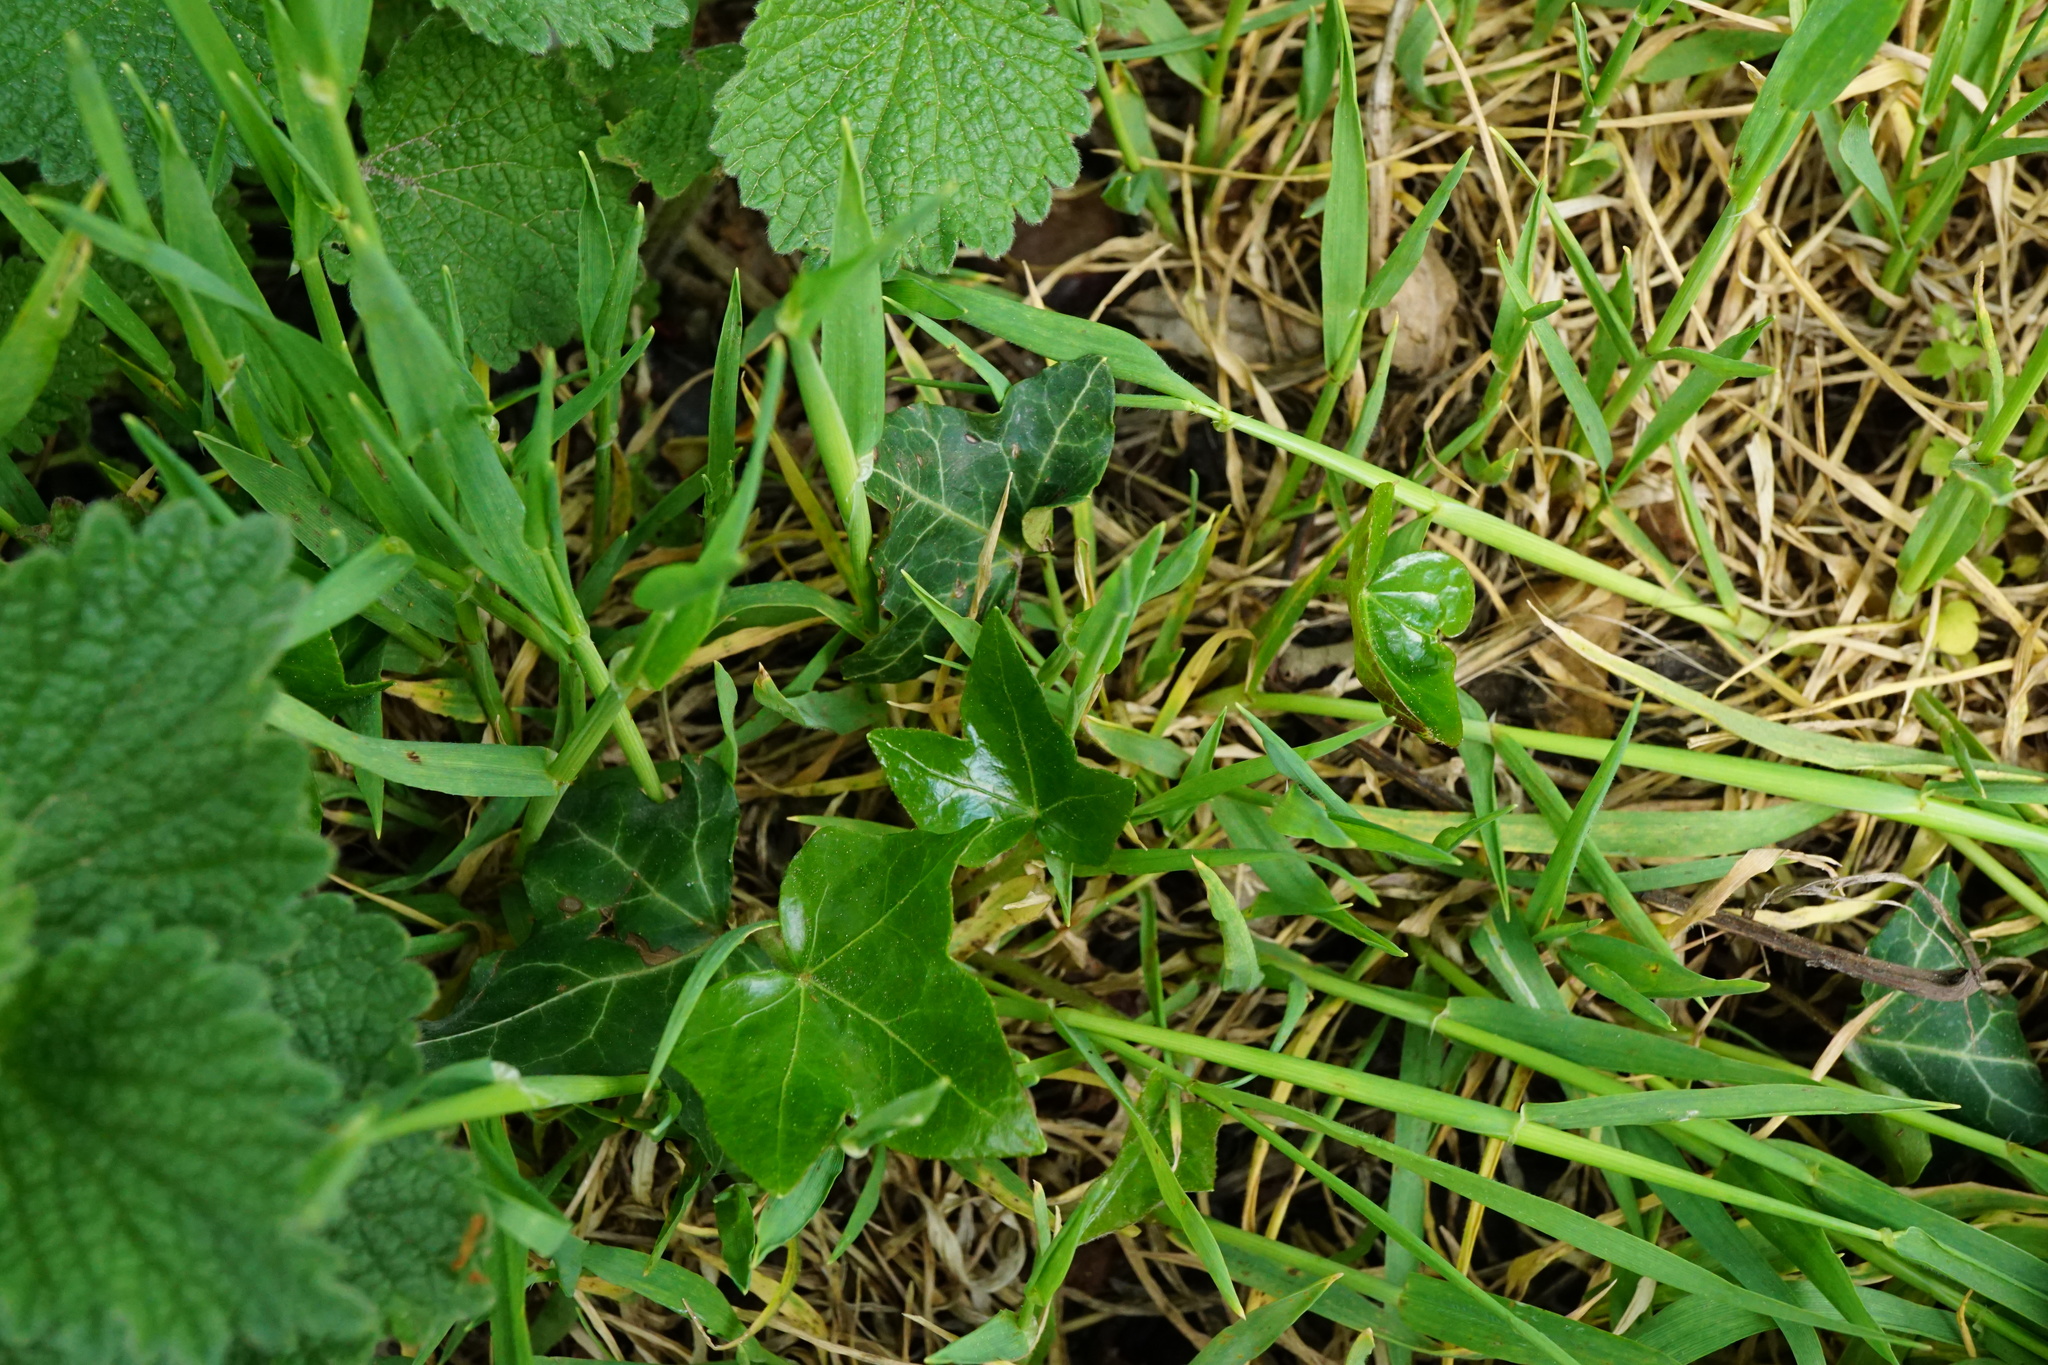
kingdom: Plantae
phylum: Tracheophyta
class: Magnoliopsida
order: Apiales
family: Araliaceae
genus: Hedera
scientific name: Hedera helix
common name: Ivy
